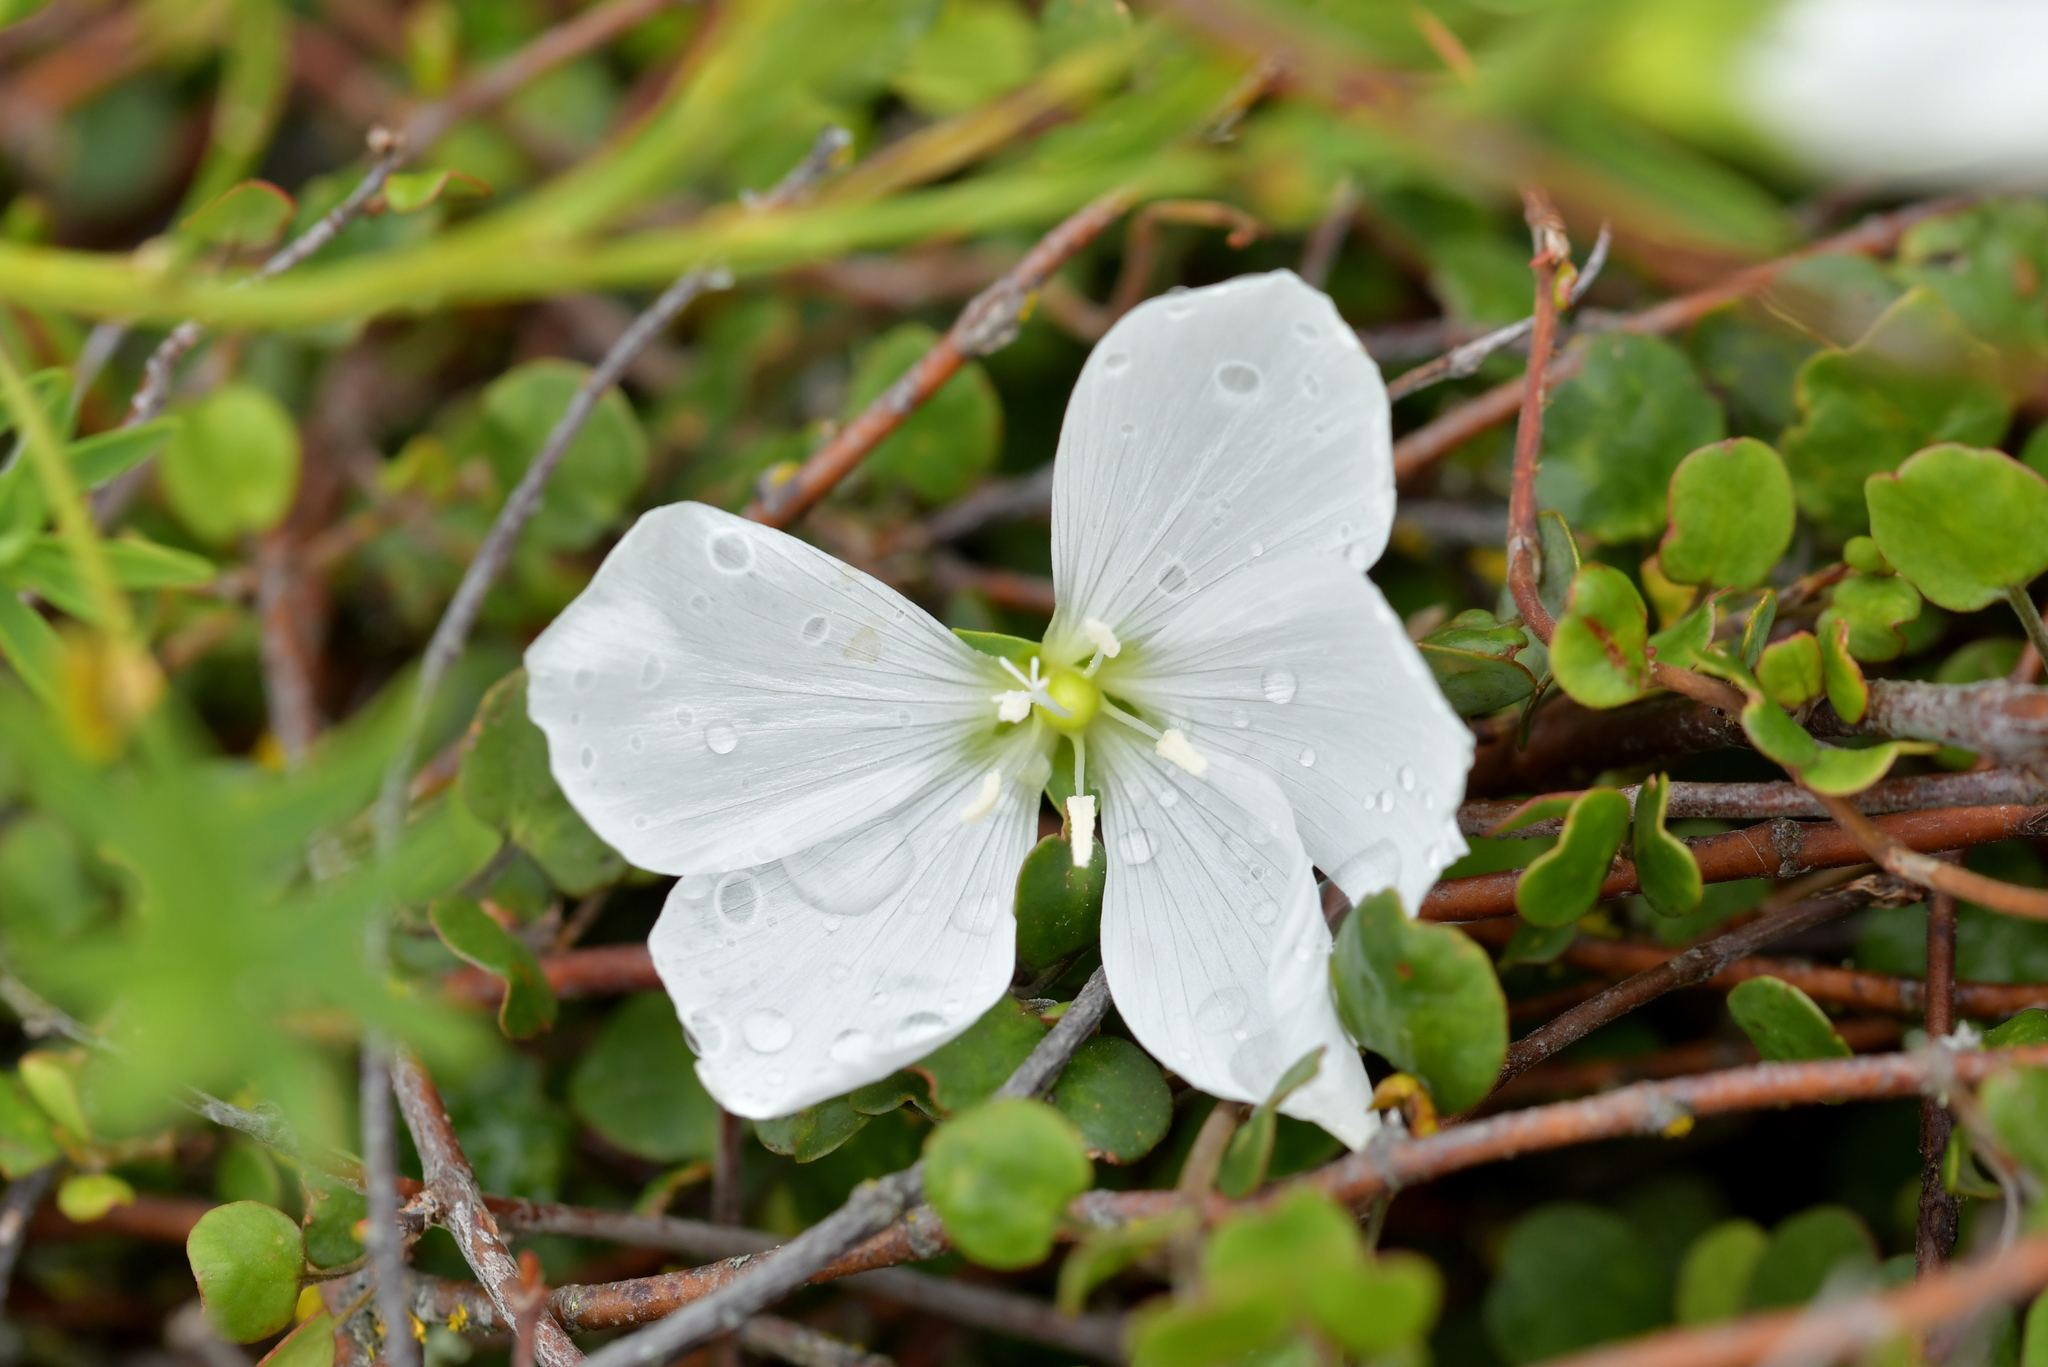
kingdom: Plantae
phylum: Tracheophyta
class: Magnoliopsida
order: Malpighiales
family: Linaceae
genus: Linum
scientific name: Linum monogynum
